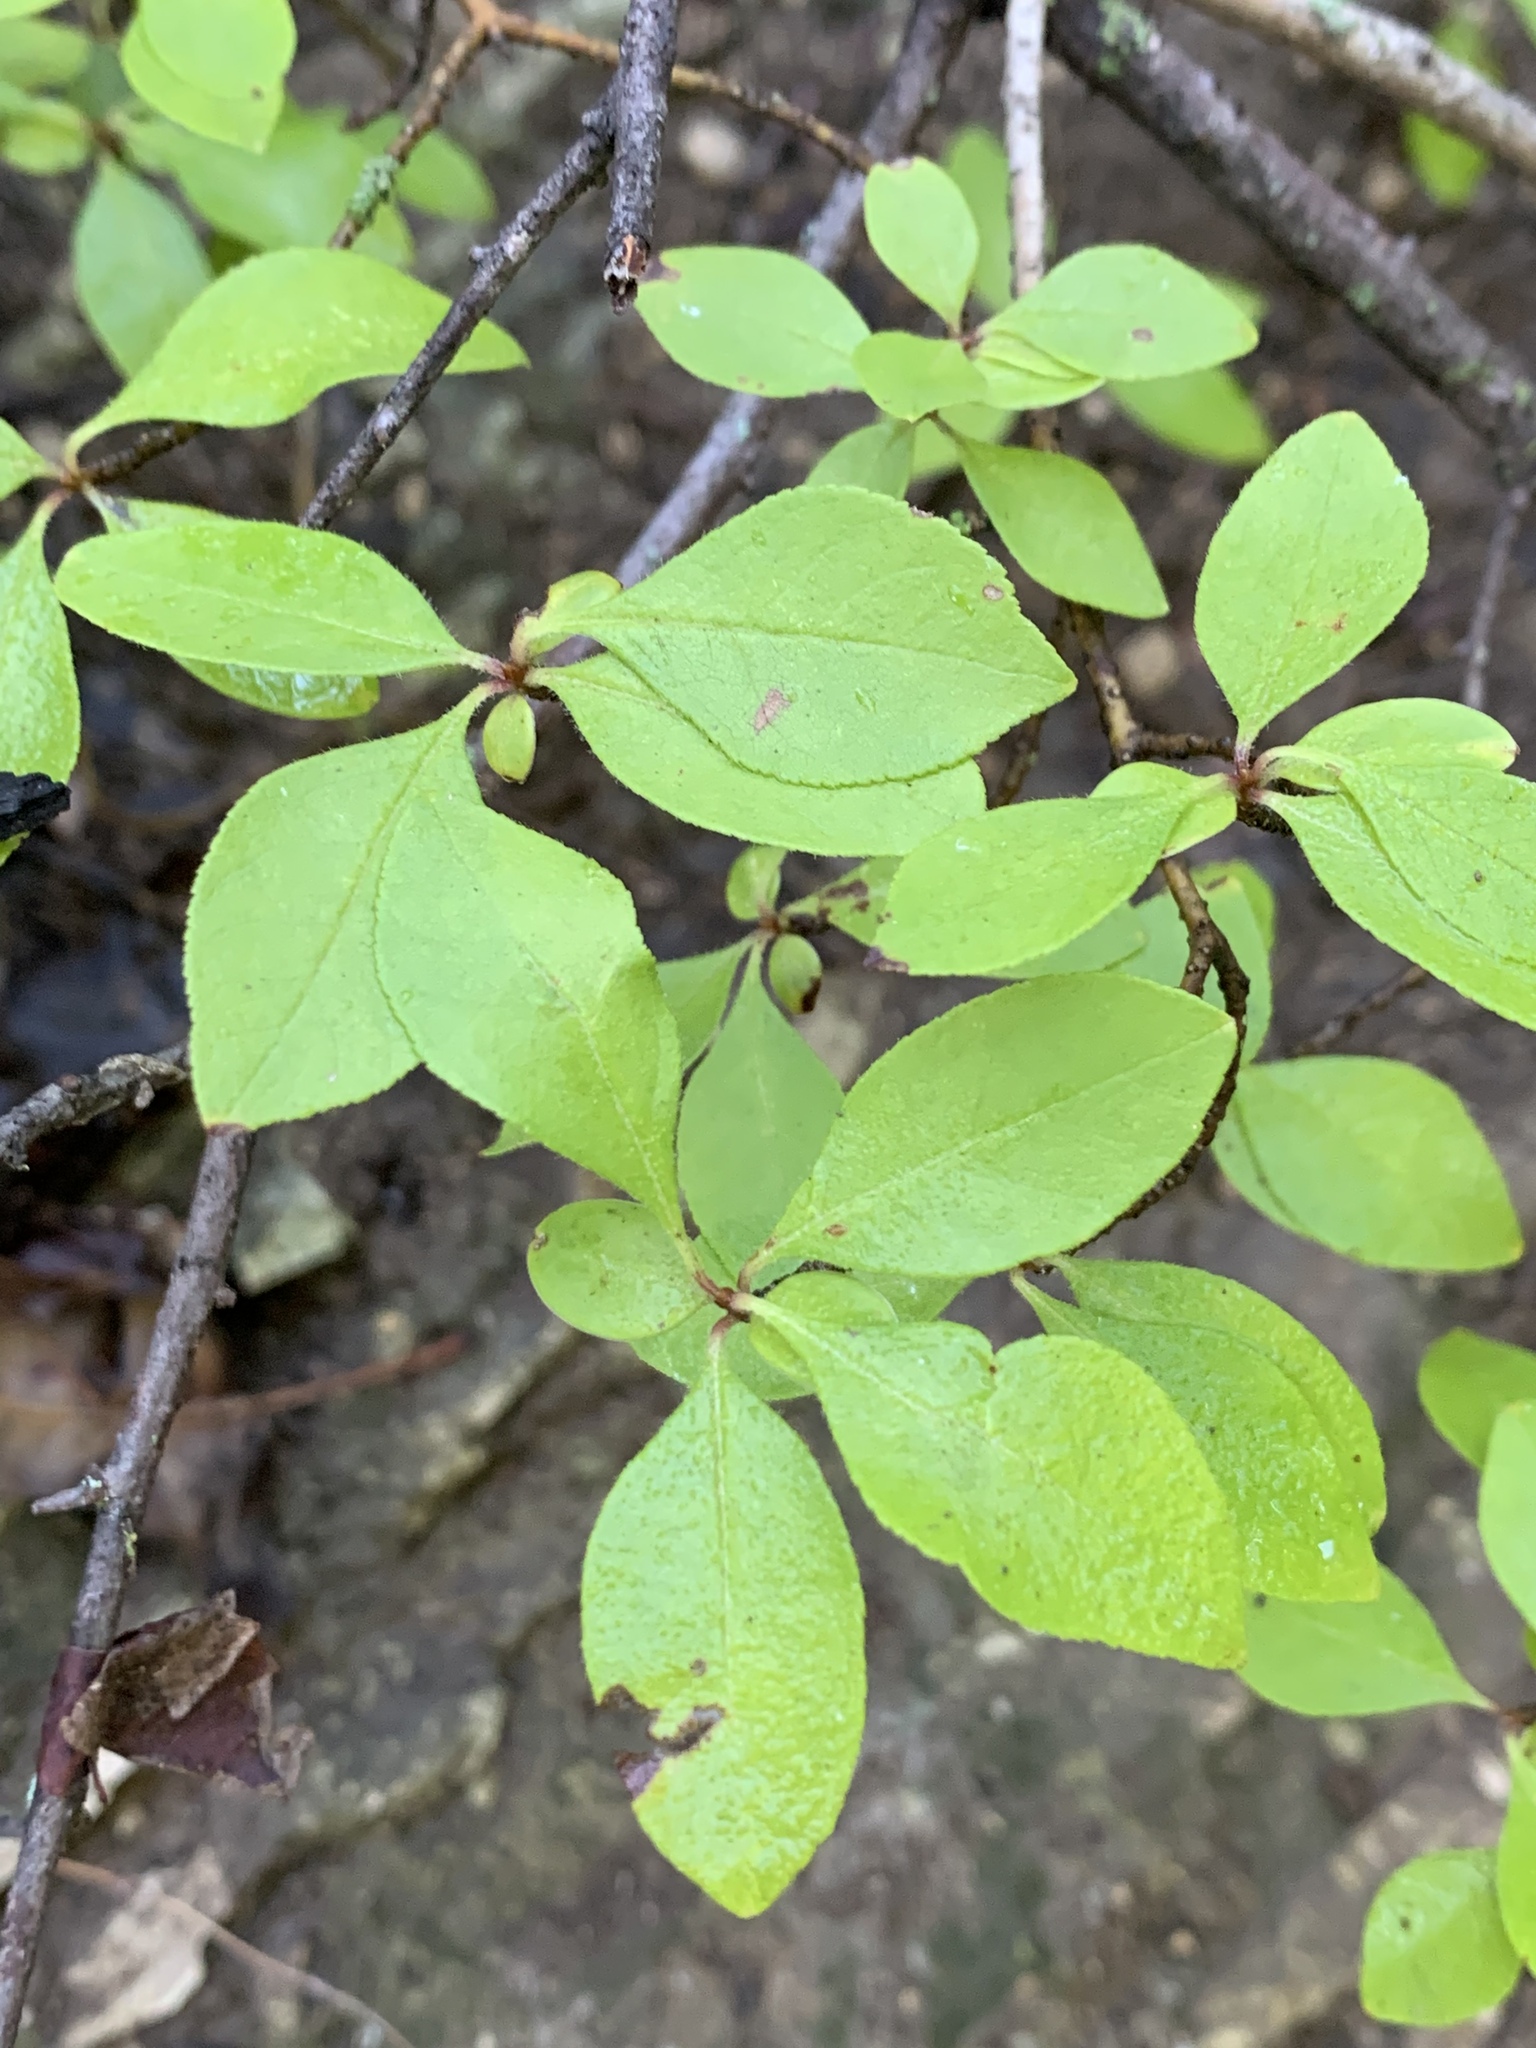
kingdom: Plantae
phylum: Tracheophyta
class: Magnoliopsida
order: Aquifoliales
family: Aquifoliaceae
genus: Ilex
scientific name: Ilex decidua
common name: Possum-haw
